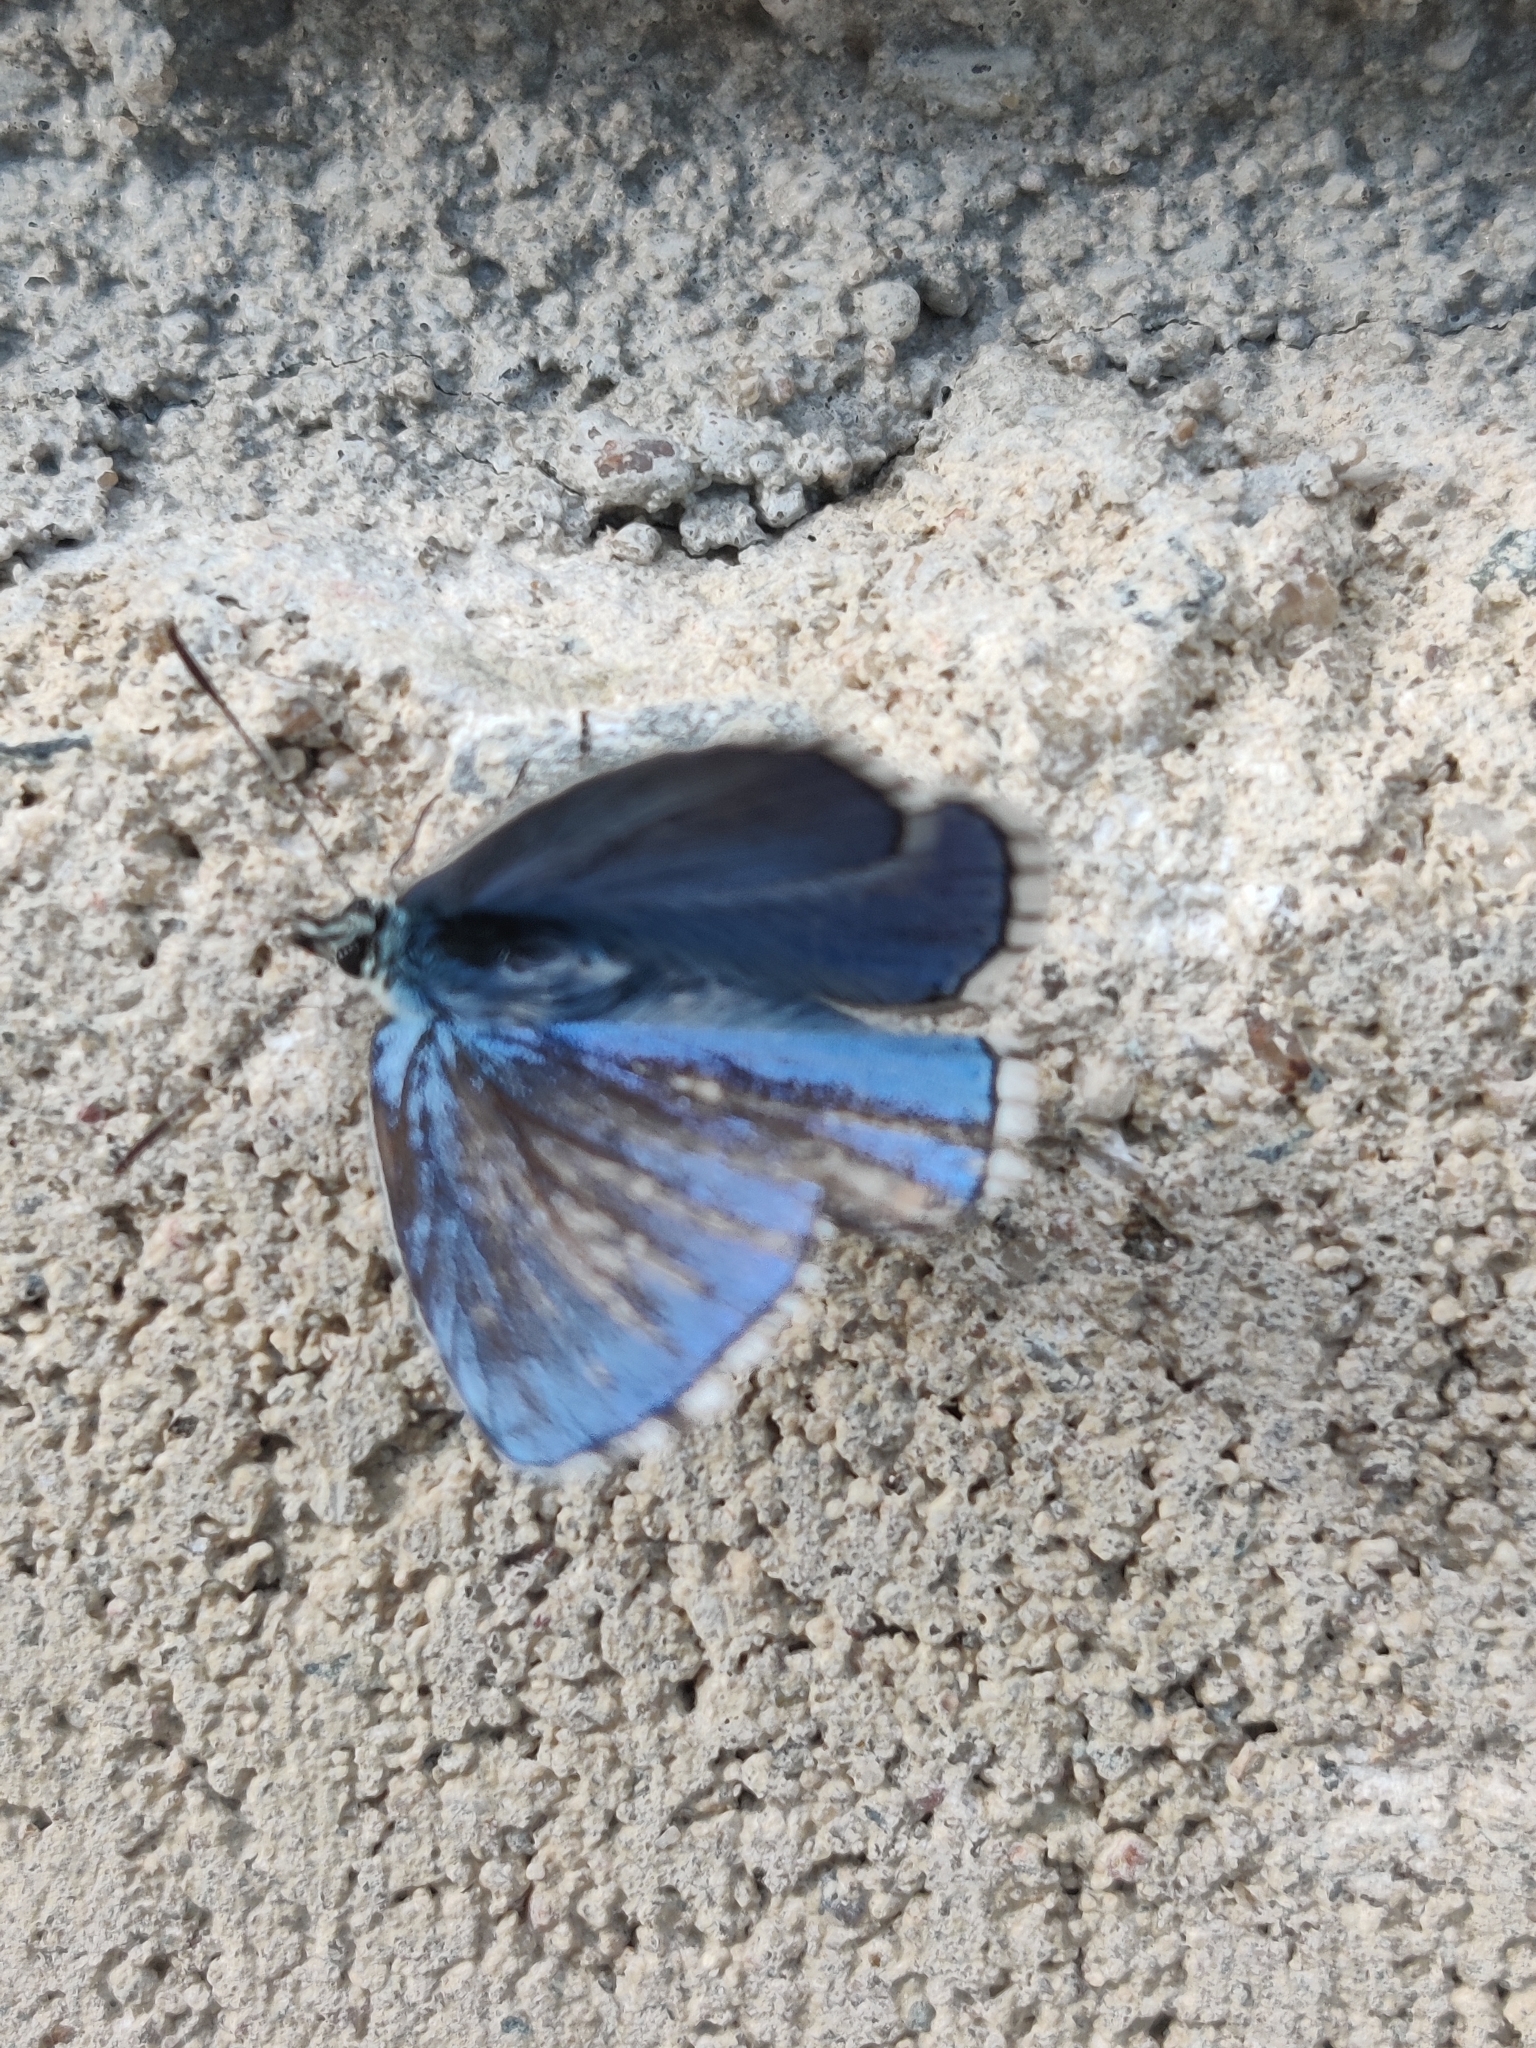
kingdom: Animalia
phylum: Arthropoda
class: Insecta
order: Lepidoptera
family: Lycaenidae
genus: Lysandra
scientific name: Lysandra bellargus
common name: Adonis blue
